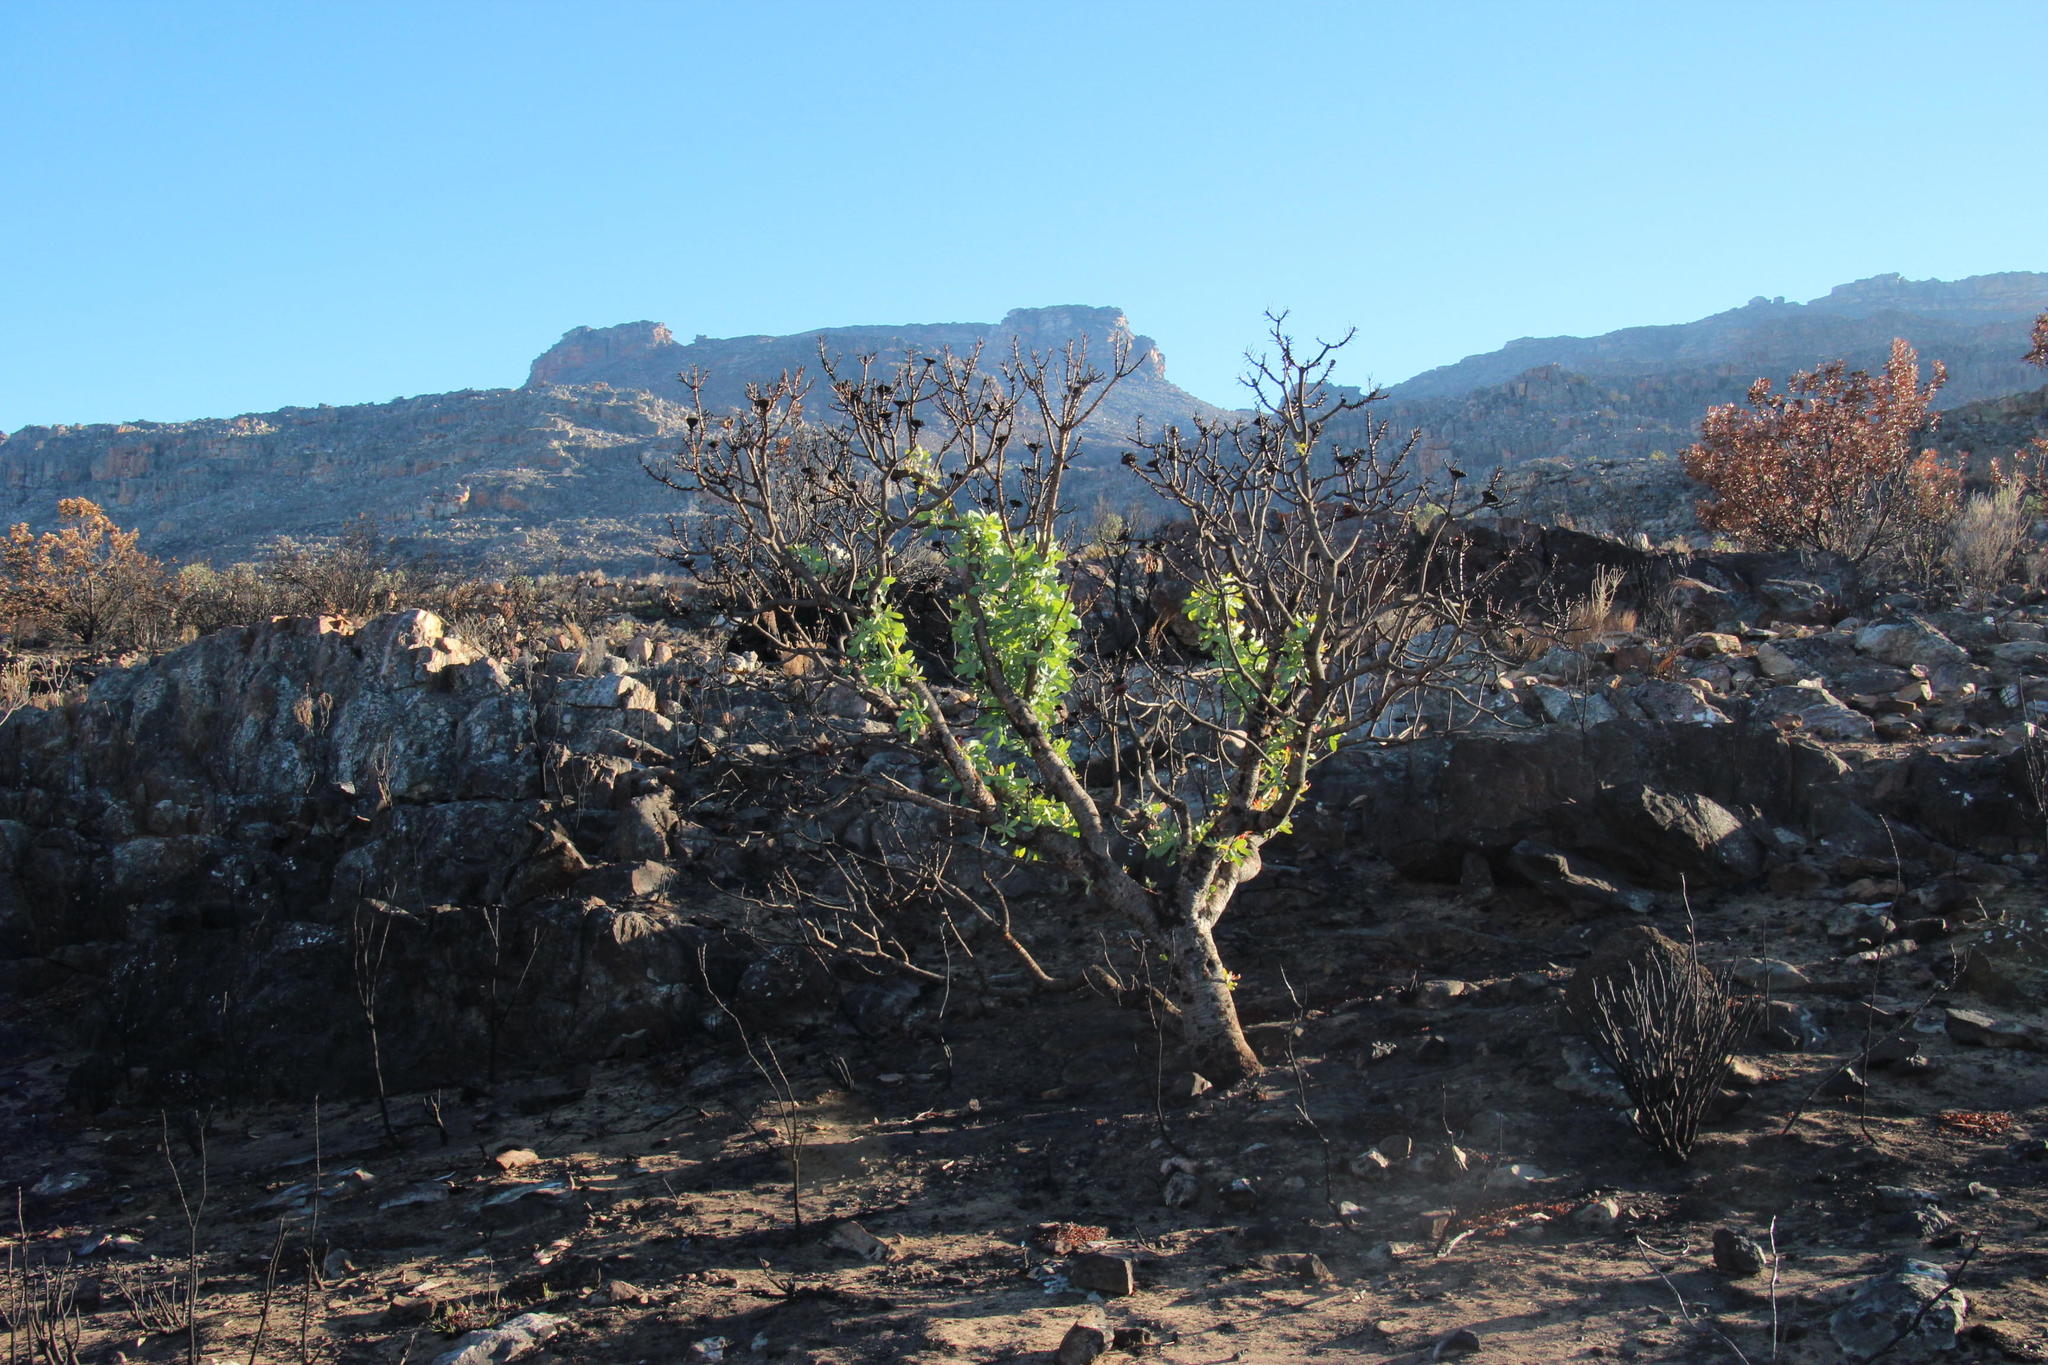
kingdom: Plantae
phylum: Tracheophyta
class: Magnoliopsida
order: Proteales
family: Proteaceae
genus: Protea
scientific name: Protea nitida
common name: Tree protea
